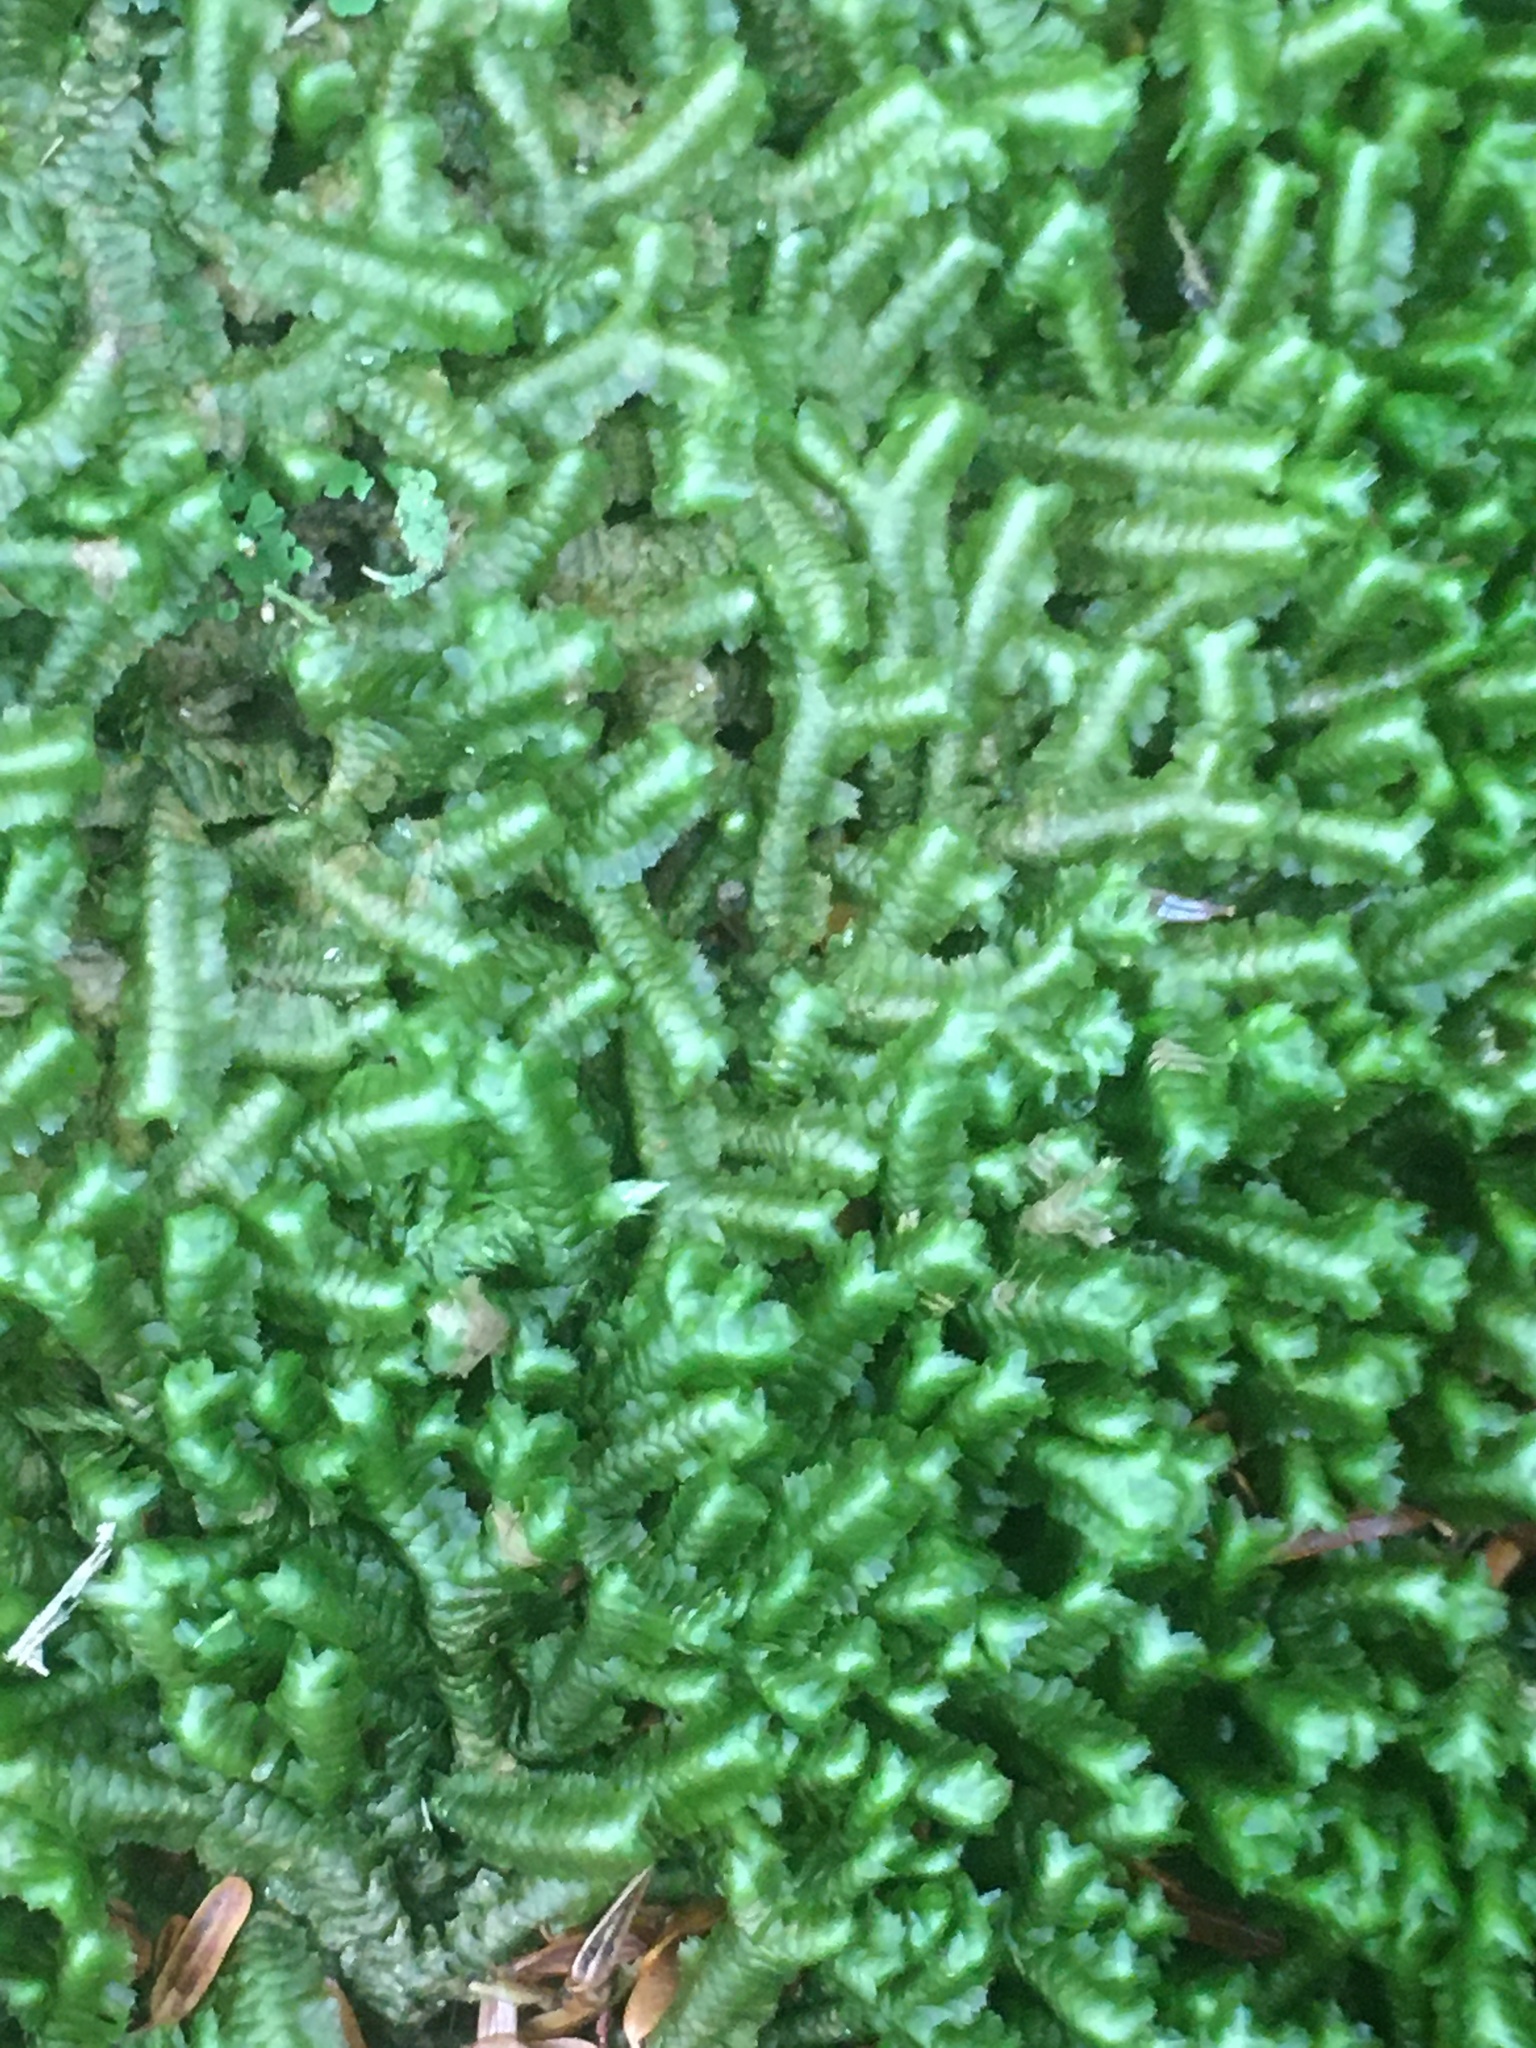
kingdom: Plantae
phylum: Marchantiophyta
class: Jungermanniopsida
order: Jungermanniales
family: Lepidoziaceae
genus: Bazzania
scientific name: Bazzania trilobata
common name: Three-lobed whipwort
